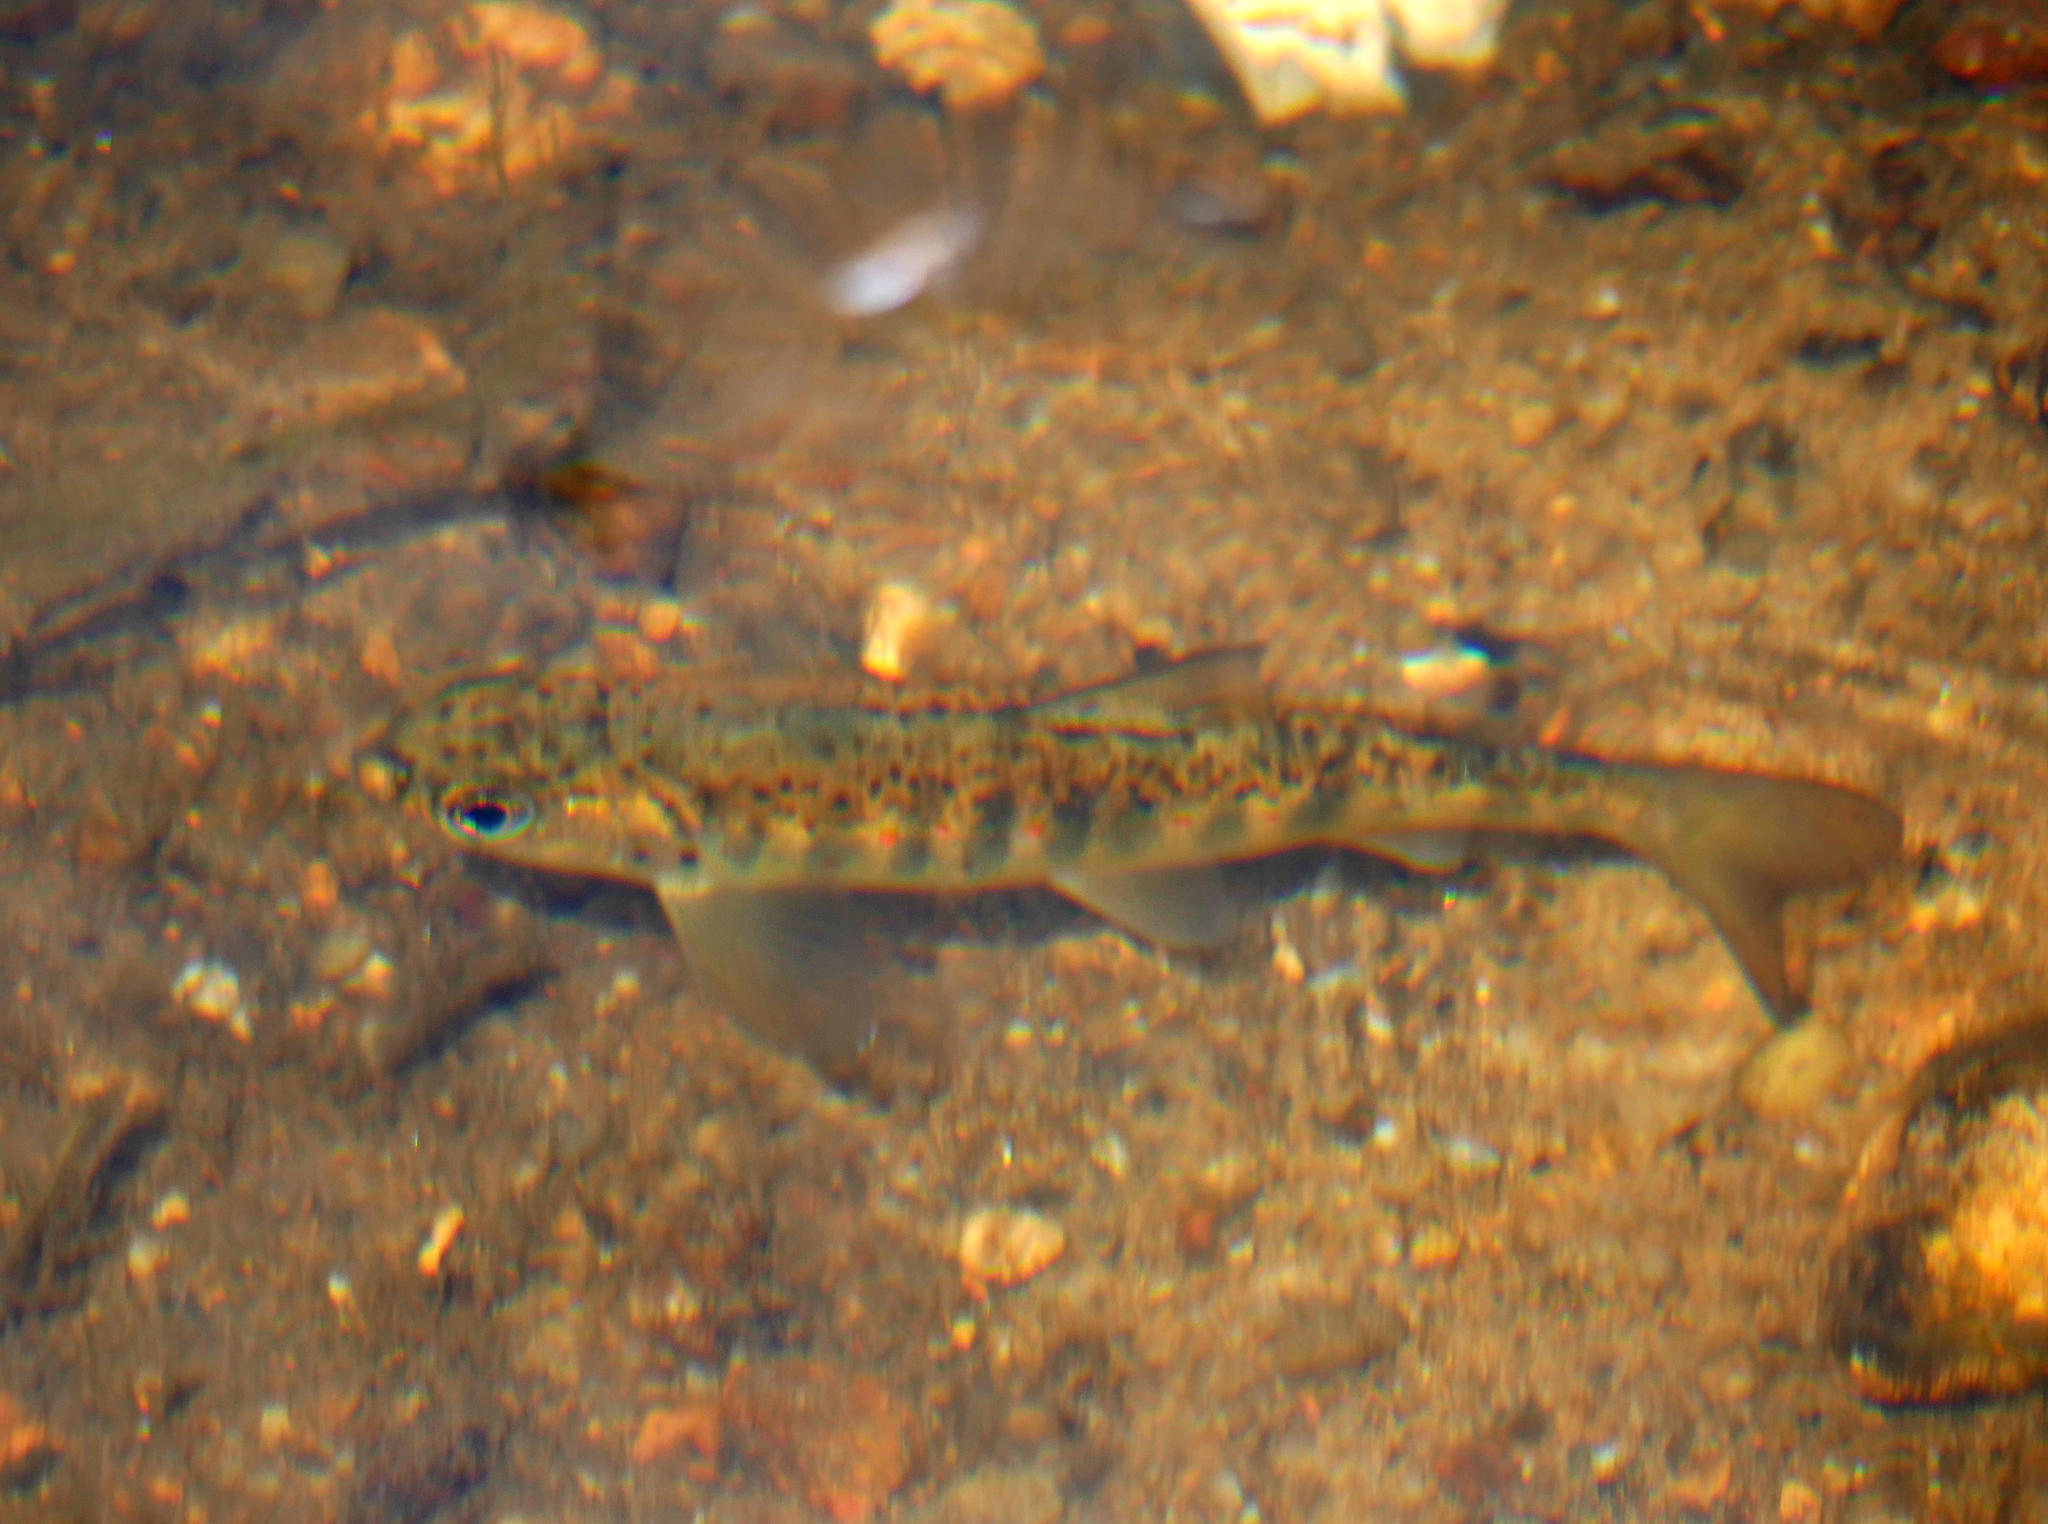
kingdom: Animalia
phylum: Chordata
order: Salmoniformes
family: Salmonidae
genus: Salmo
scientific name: Salmo salar
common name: Atlantic salmon
